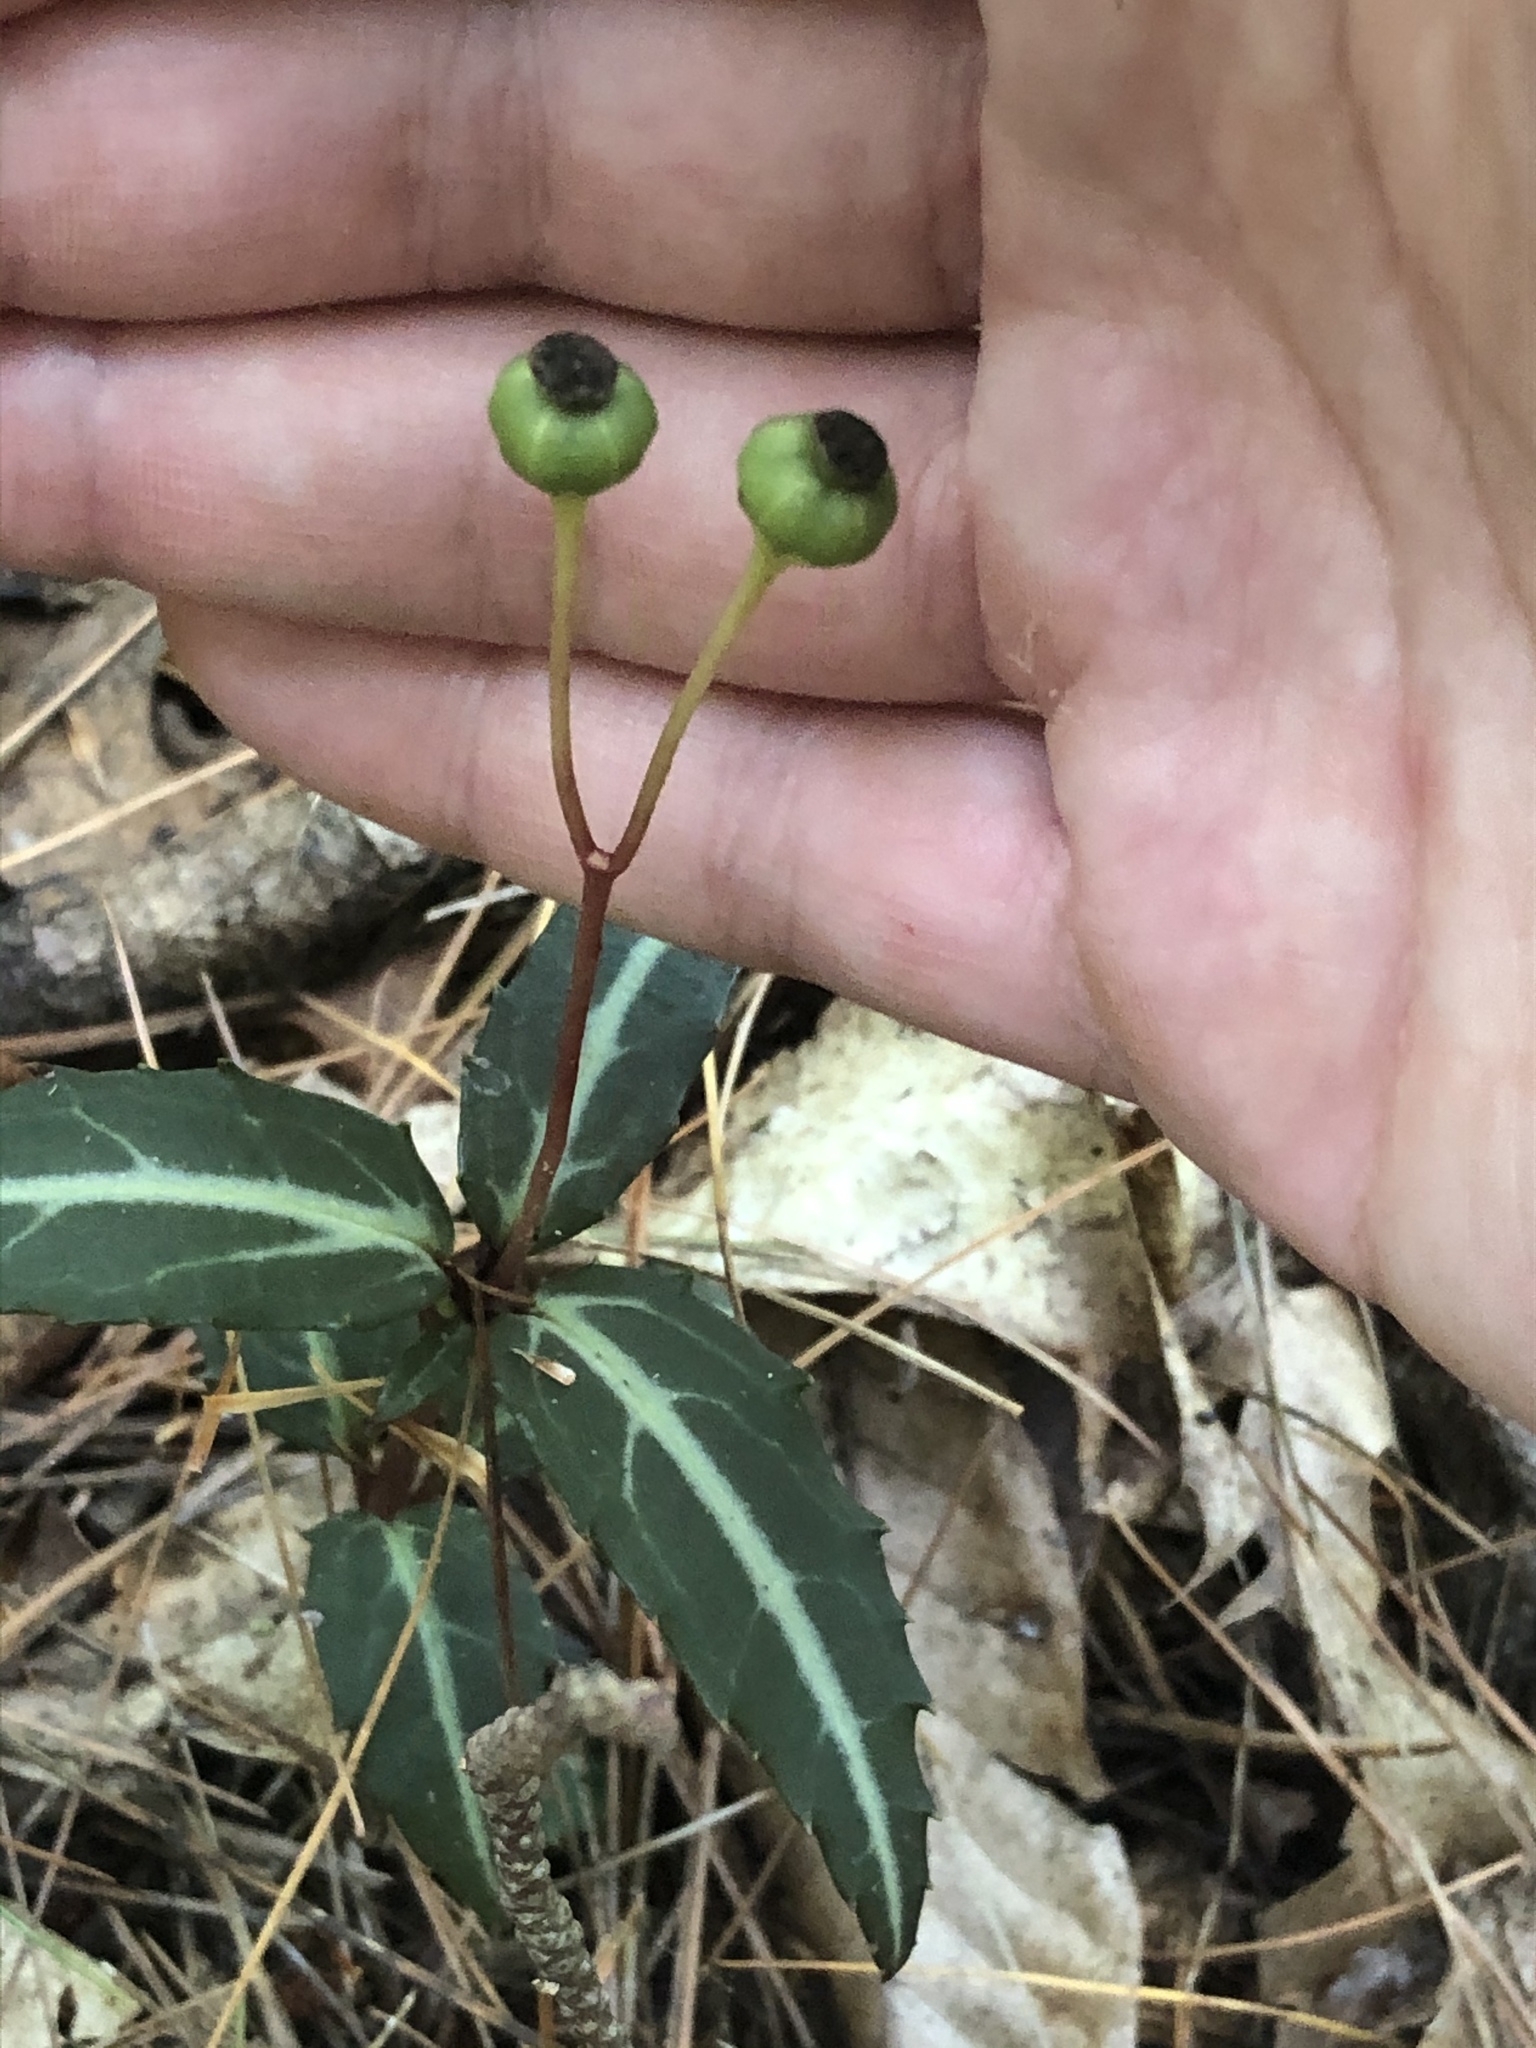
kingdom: Plantae
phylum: Tracheophyta
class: Magnoliopsida
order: Ericales
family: Ericaceae
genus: Chimaphila
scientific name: Chimaphila maculata
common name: Spotted pipsissewa
